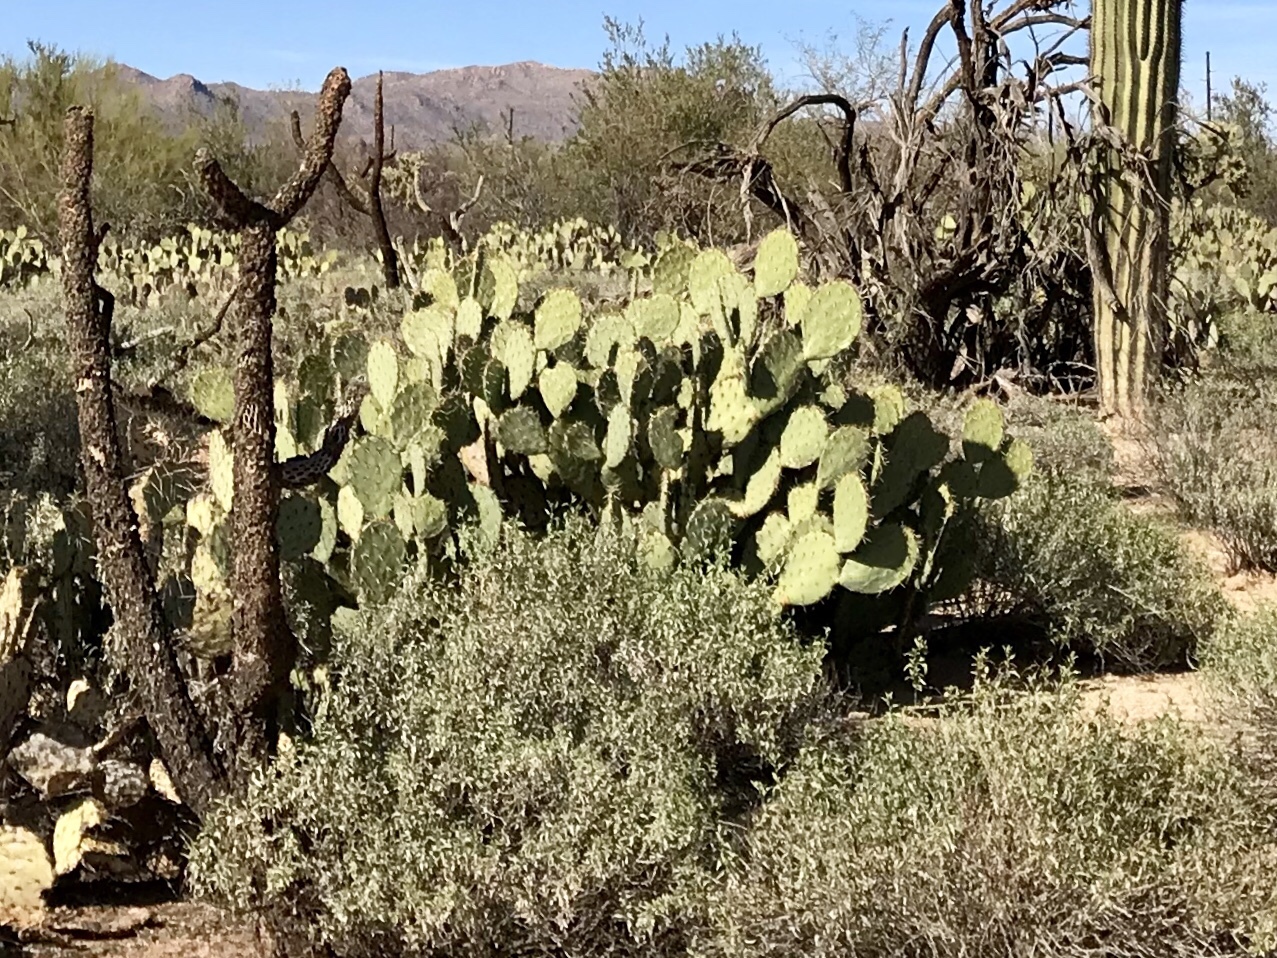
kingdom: Plantae
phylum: Tracheophyta
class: Magnoliopsida
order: Caryophyllales
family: Cactaceae
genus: Opuntia
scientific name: Opuntia engelmannii
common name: Cactus-apple
